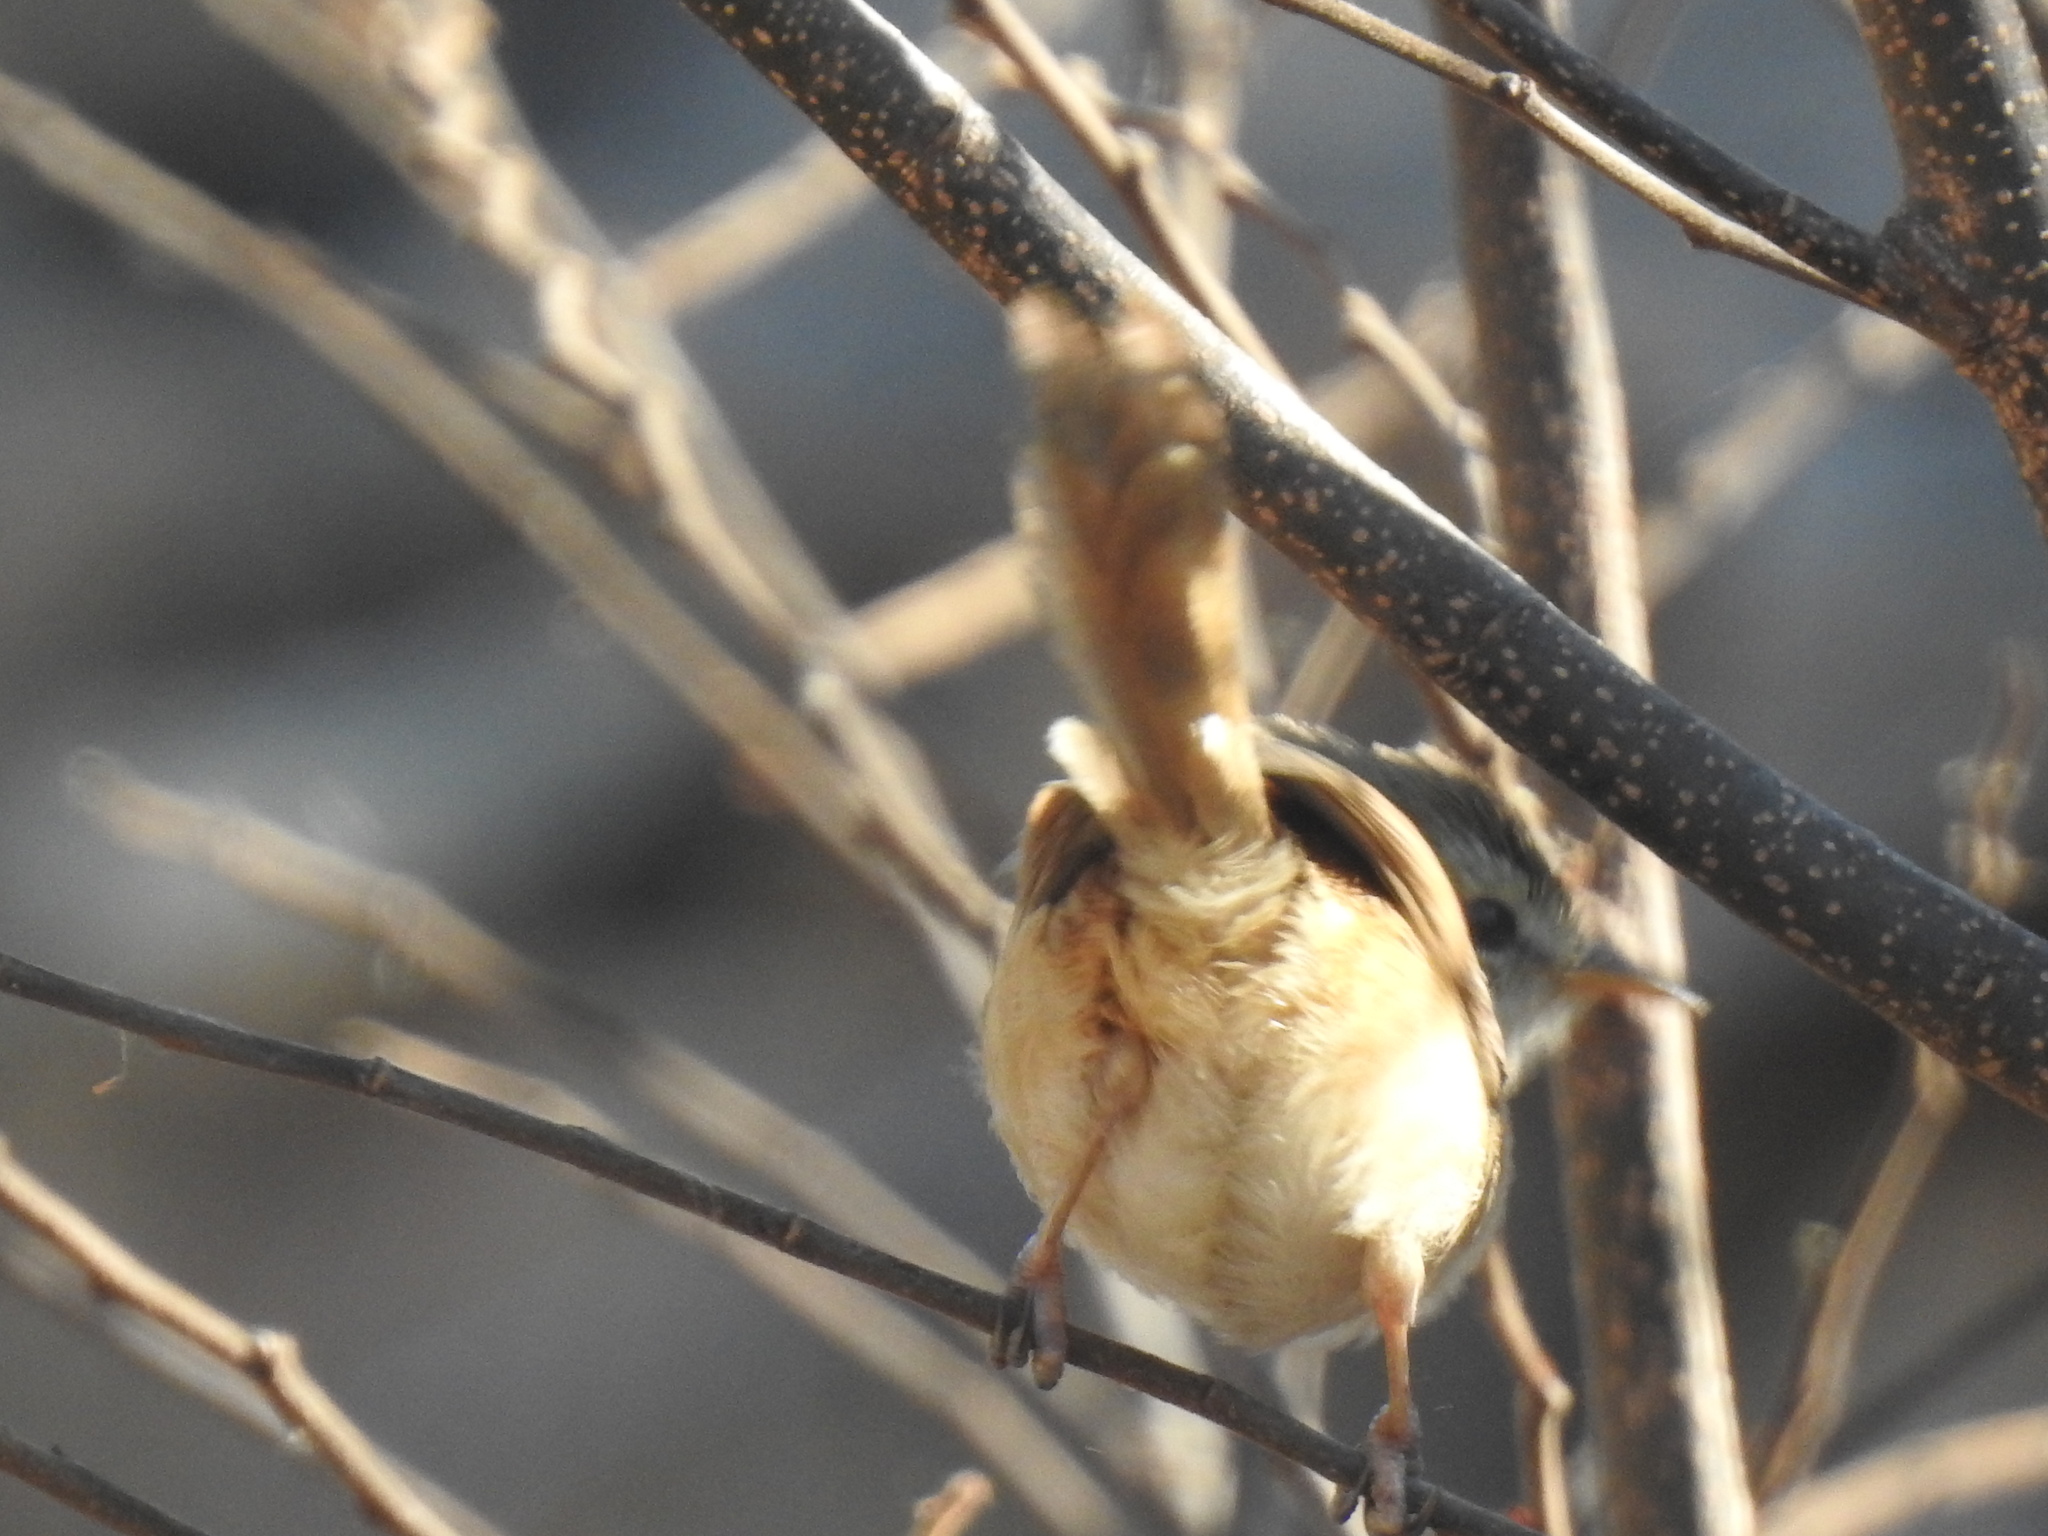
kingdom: Animalia
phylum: Chordata
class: Aves
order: Passeriformes
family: Cisticolidae
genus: Prinia
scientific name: Prinia subflava
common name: Tawny-flanked prinia
